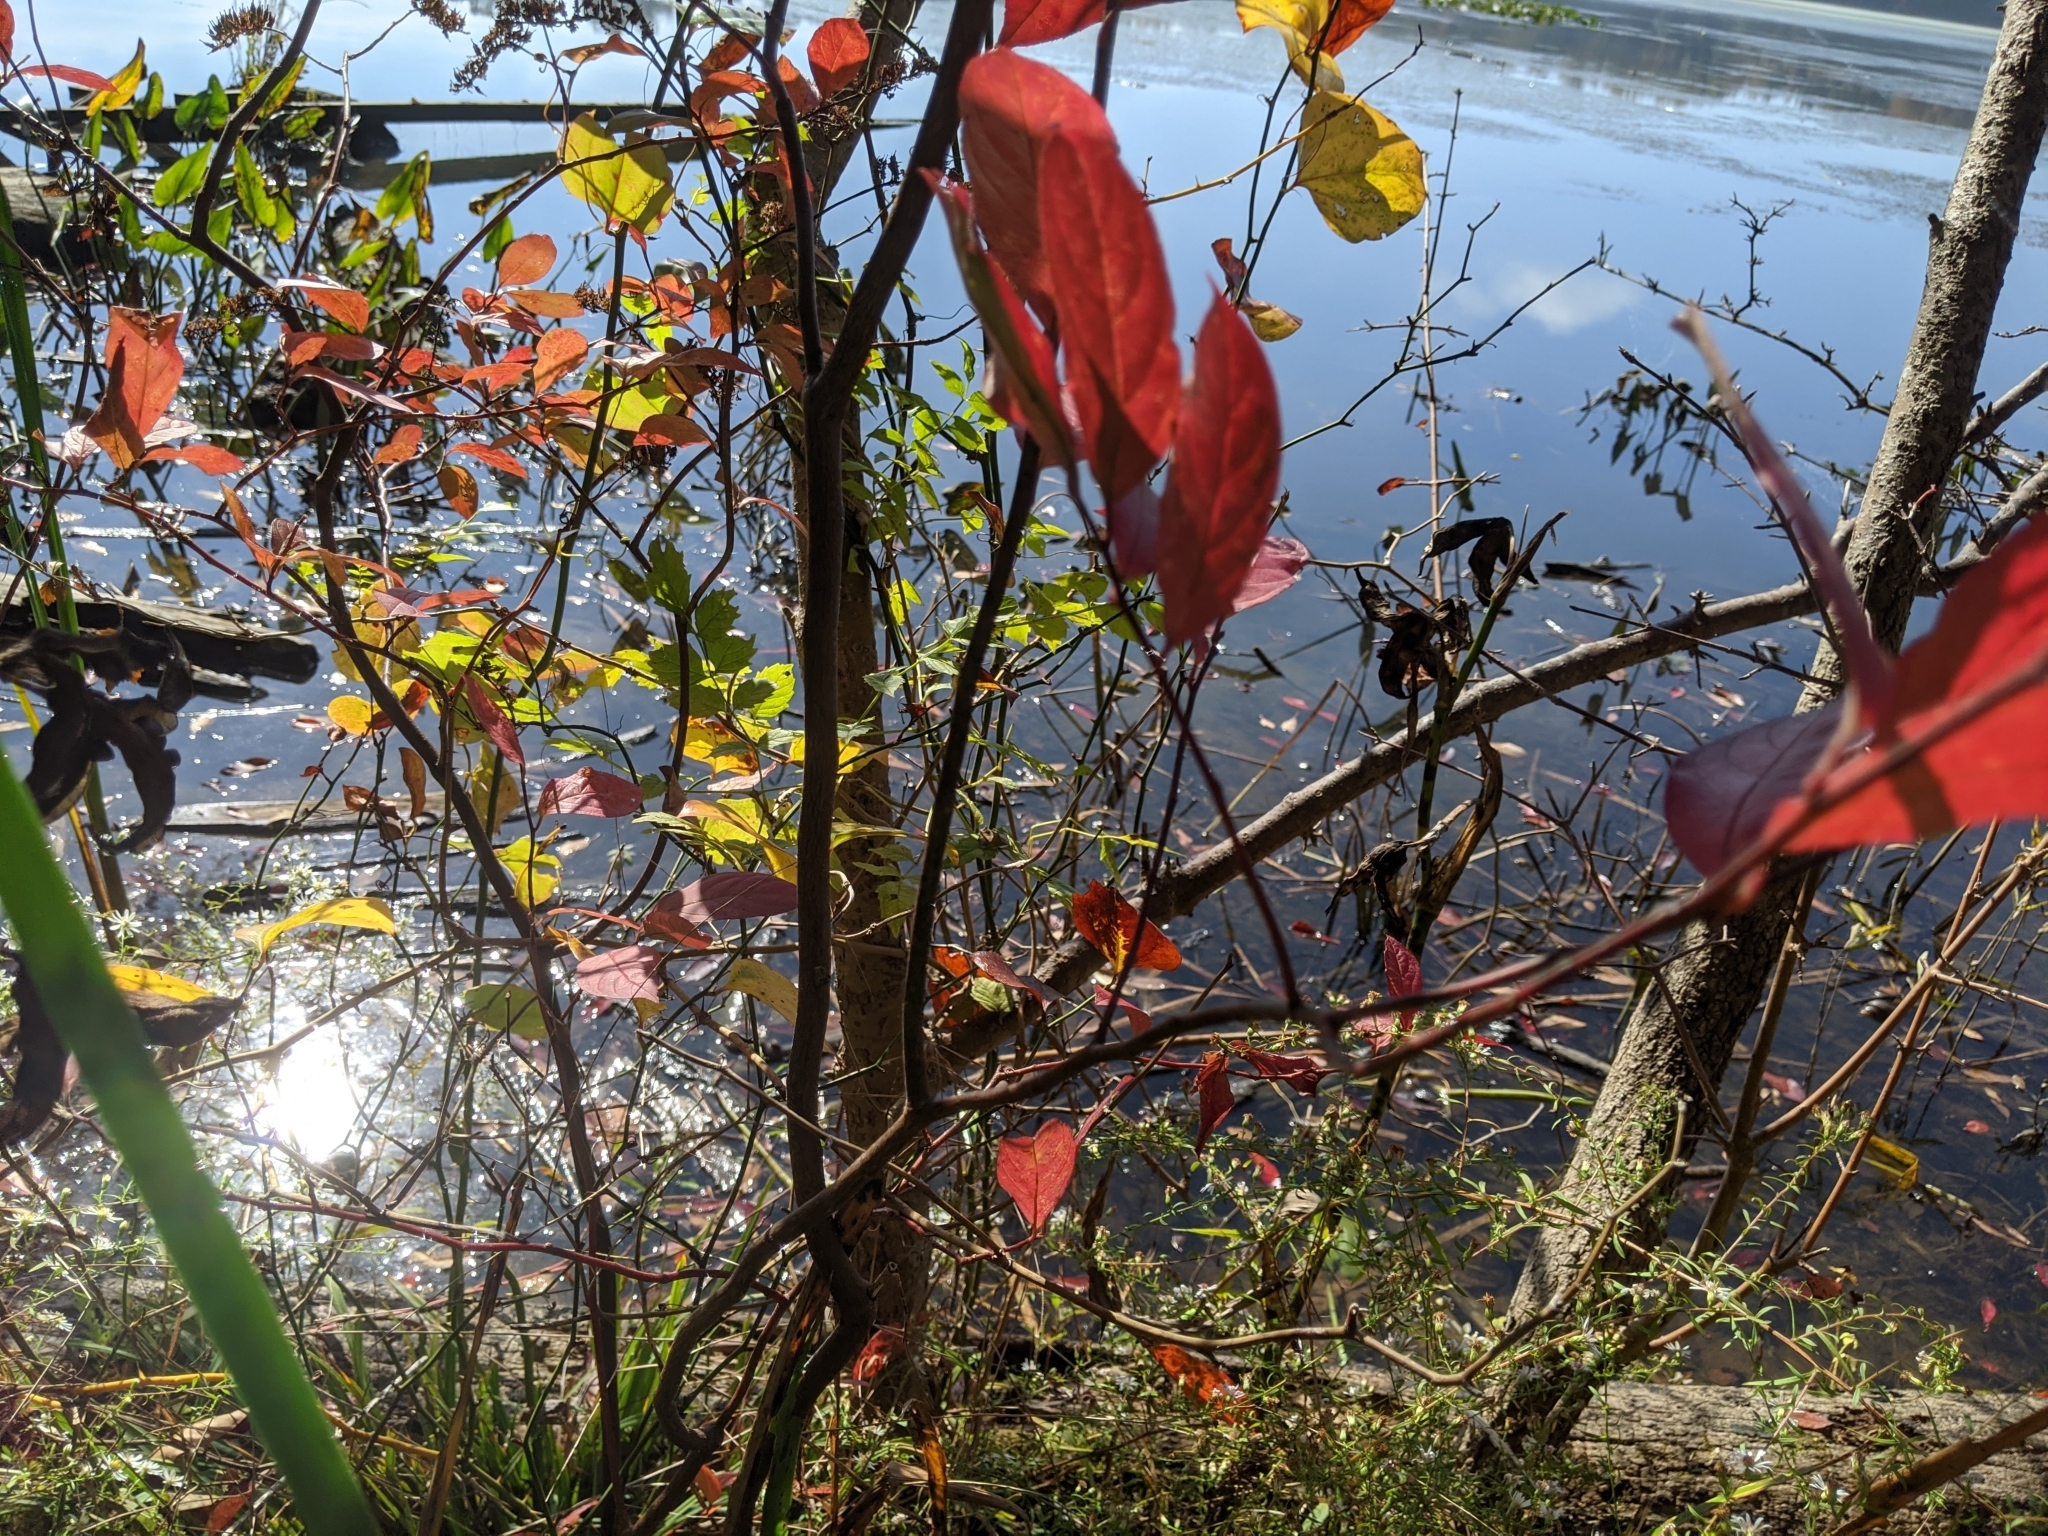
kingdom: Plantae
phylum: Tracheophyta
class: Magnoliopsida
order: Saxifragales
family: Iteaceae
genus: Itea
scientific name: Itea virginica
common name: Sweetspire
